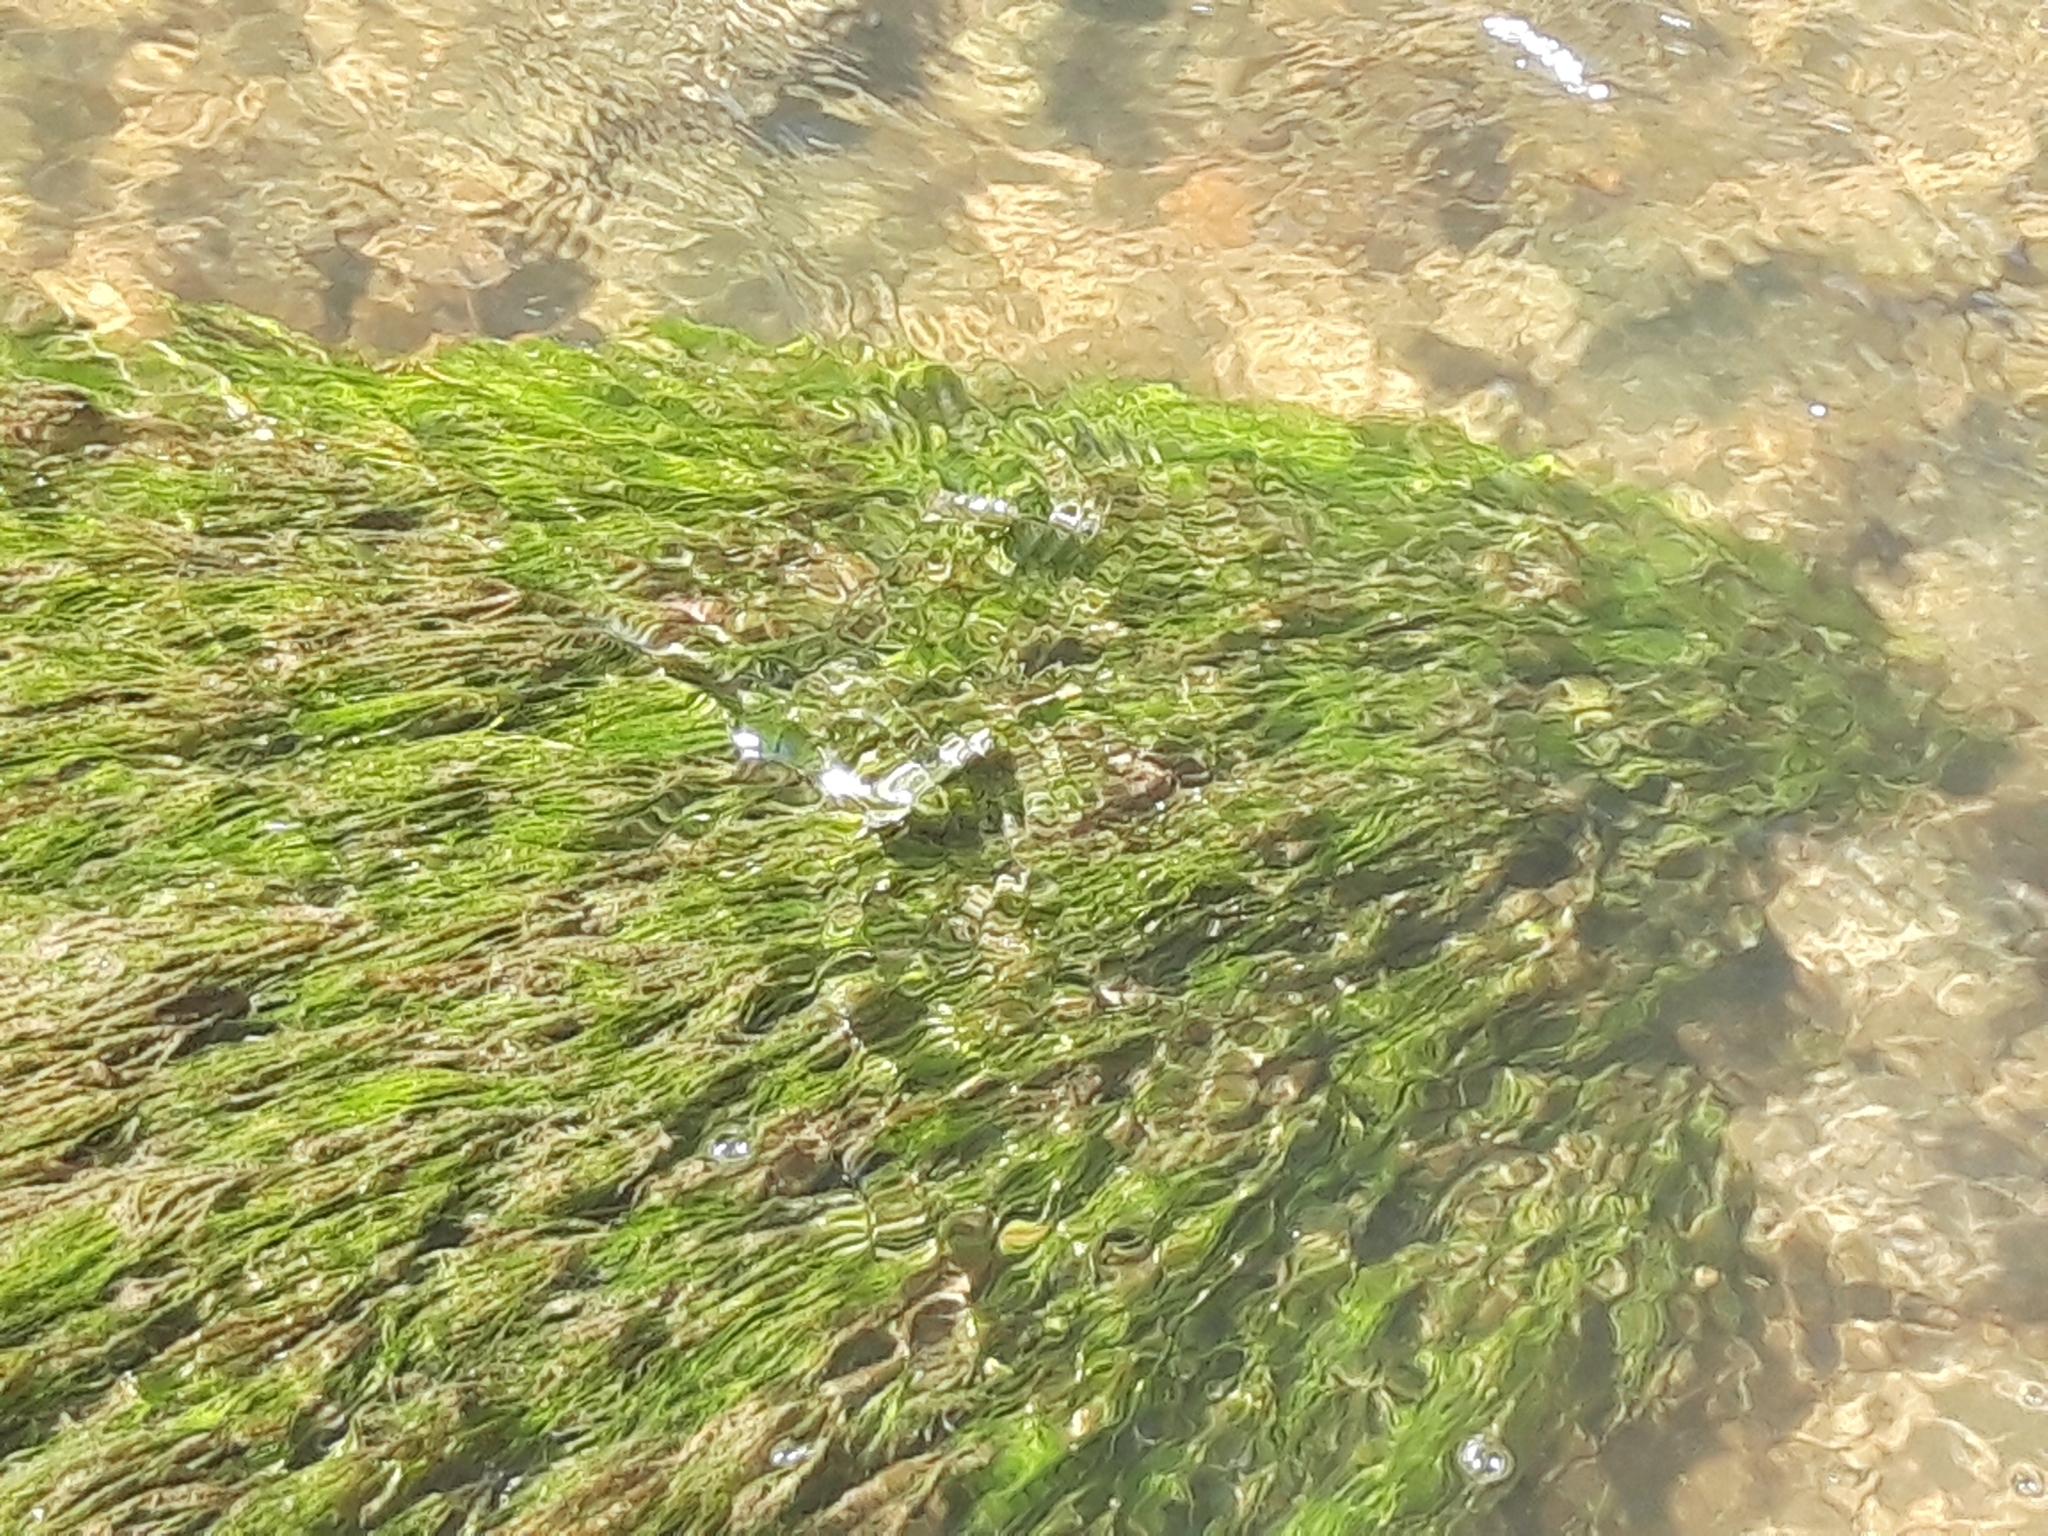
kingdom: Animalia
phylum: Arthropoda
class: Insecta
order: Odonata
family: Calopterygidae
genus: Calopteryx
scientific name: Calopteryx xanthostoma
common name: Western demoiselle
